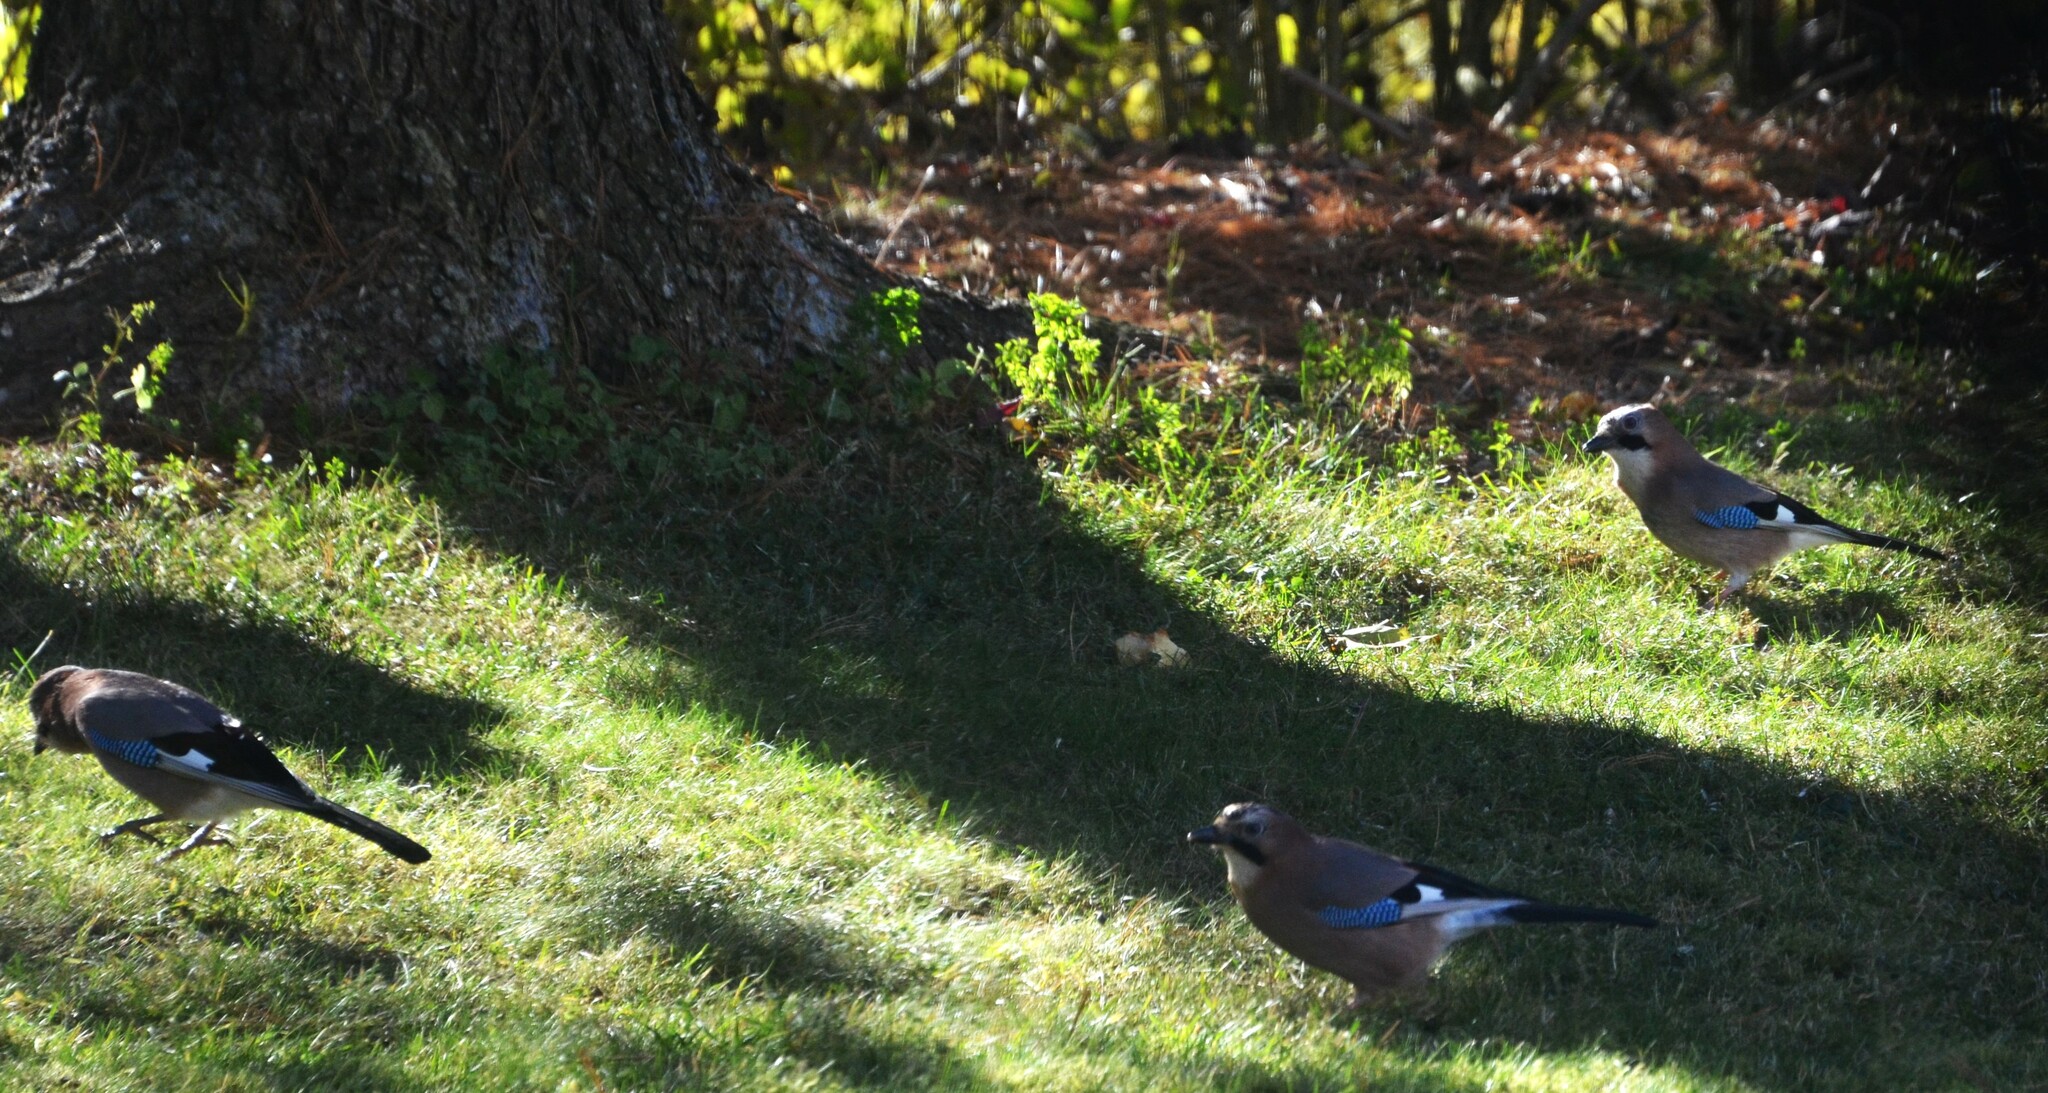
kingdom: Animalia
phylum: Chordata
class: Aves
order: Passeriformes
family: Corvidae
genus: Garrulus
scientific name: Garrulus glandarius
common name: Eurasian jay
